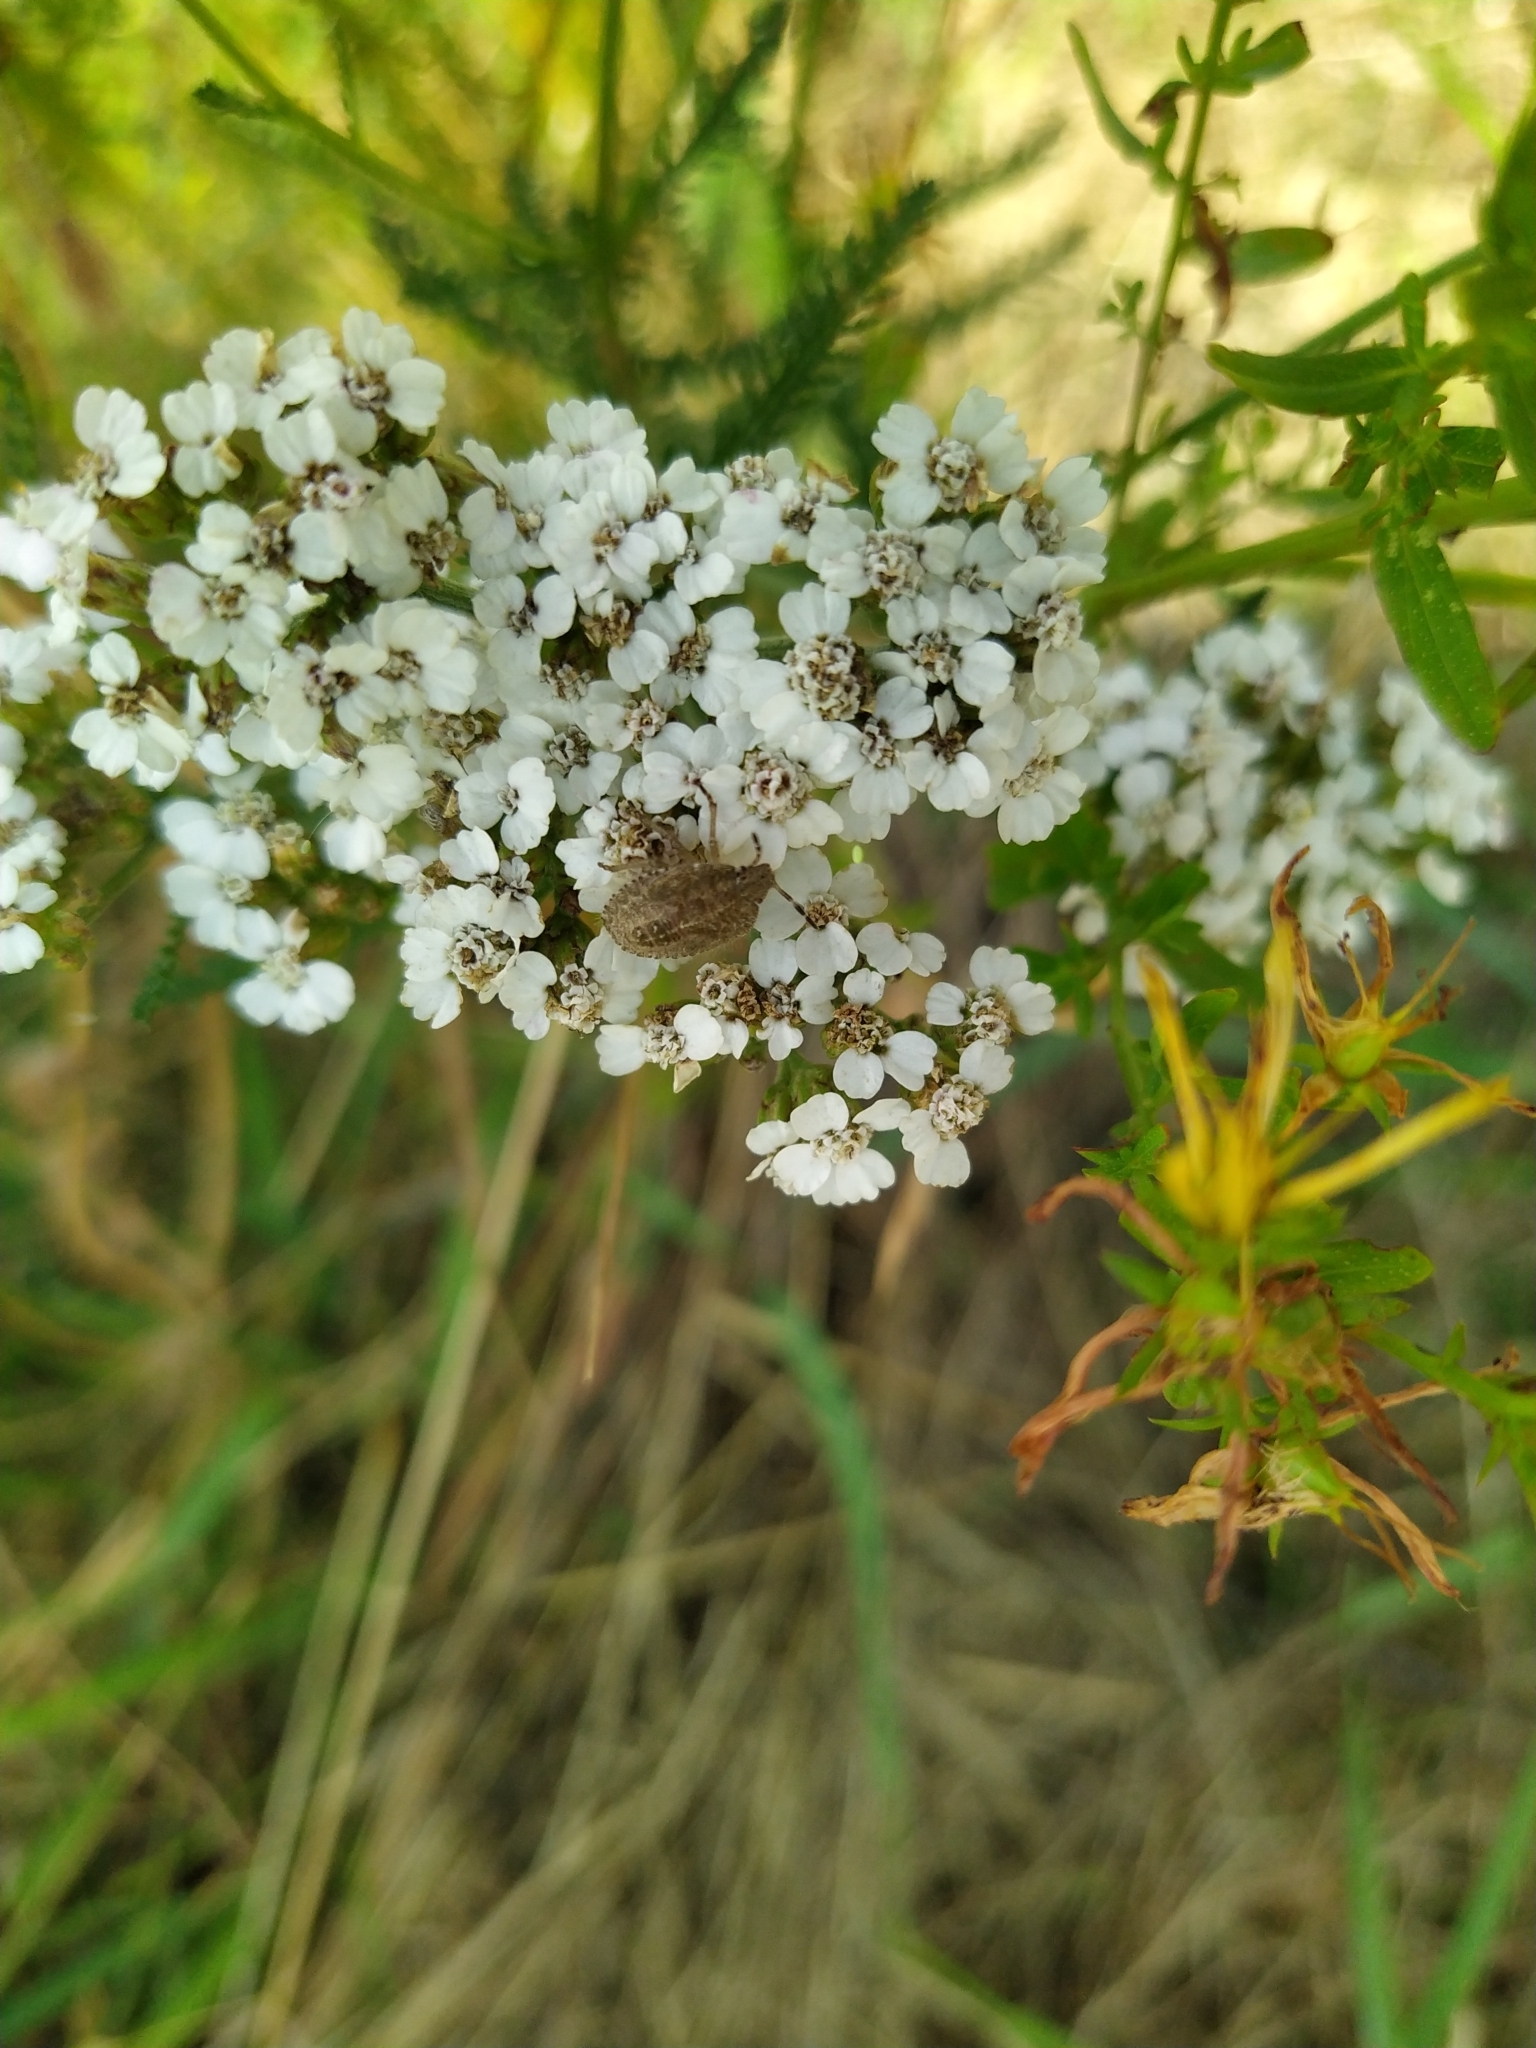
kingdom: Animalia
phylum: Arthropoda
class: Insecta
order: Hemiptera
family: Pentatomidae
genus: Dolycoris
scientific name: Dolycoris baccarum
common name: Sloe bug
